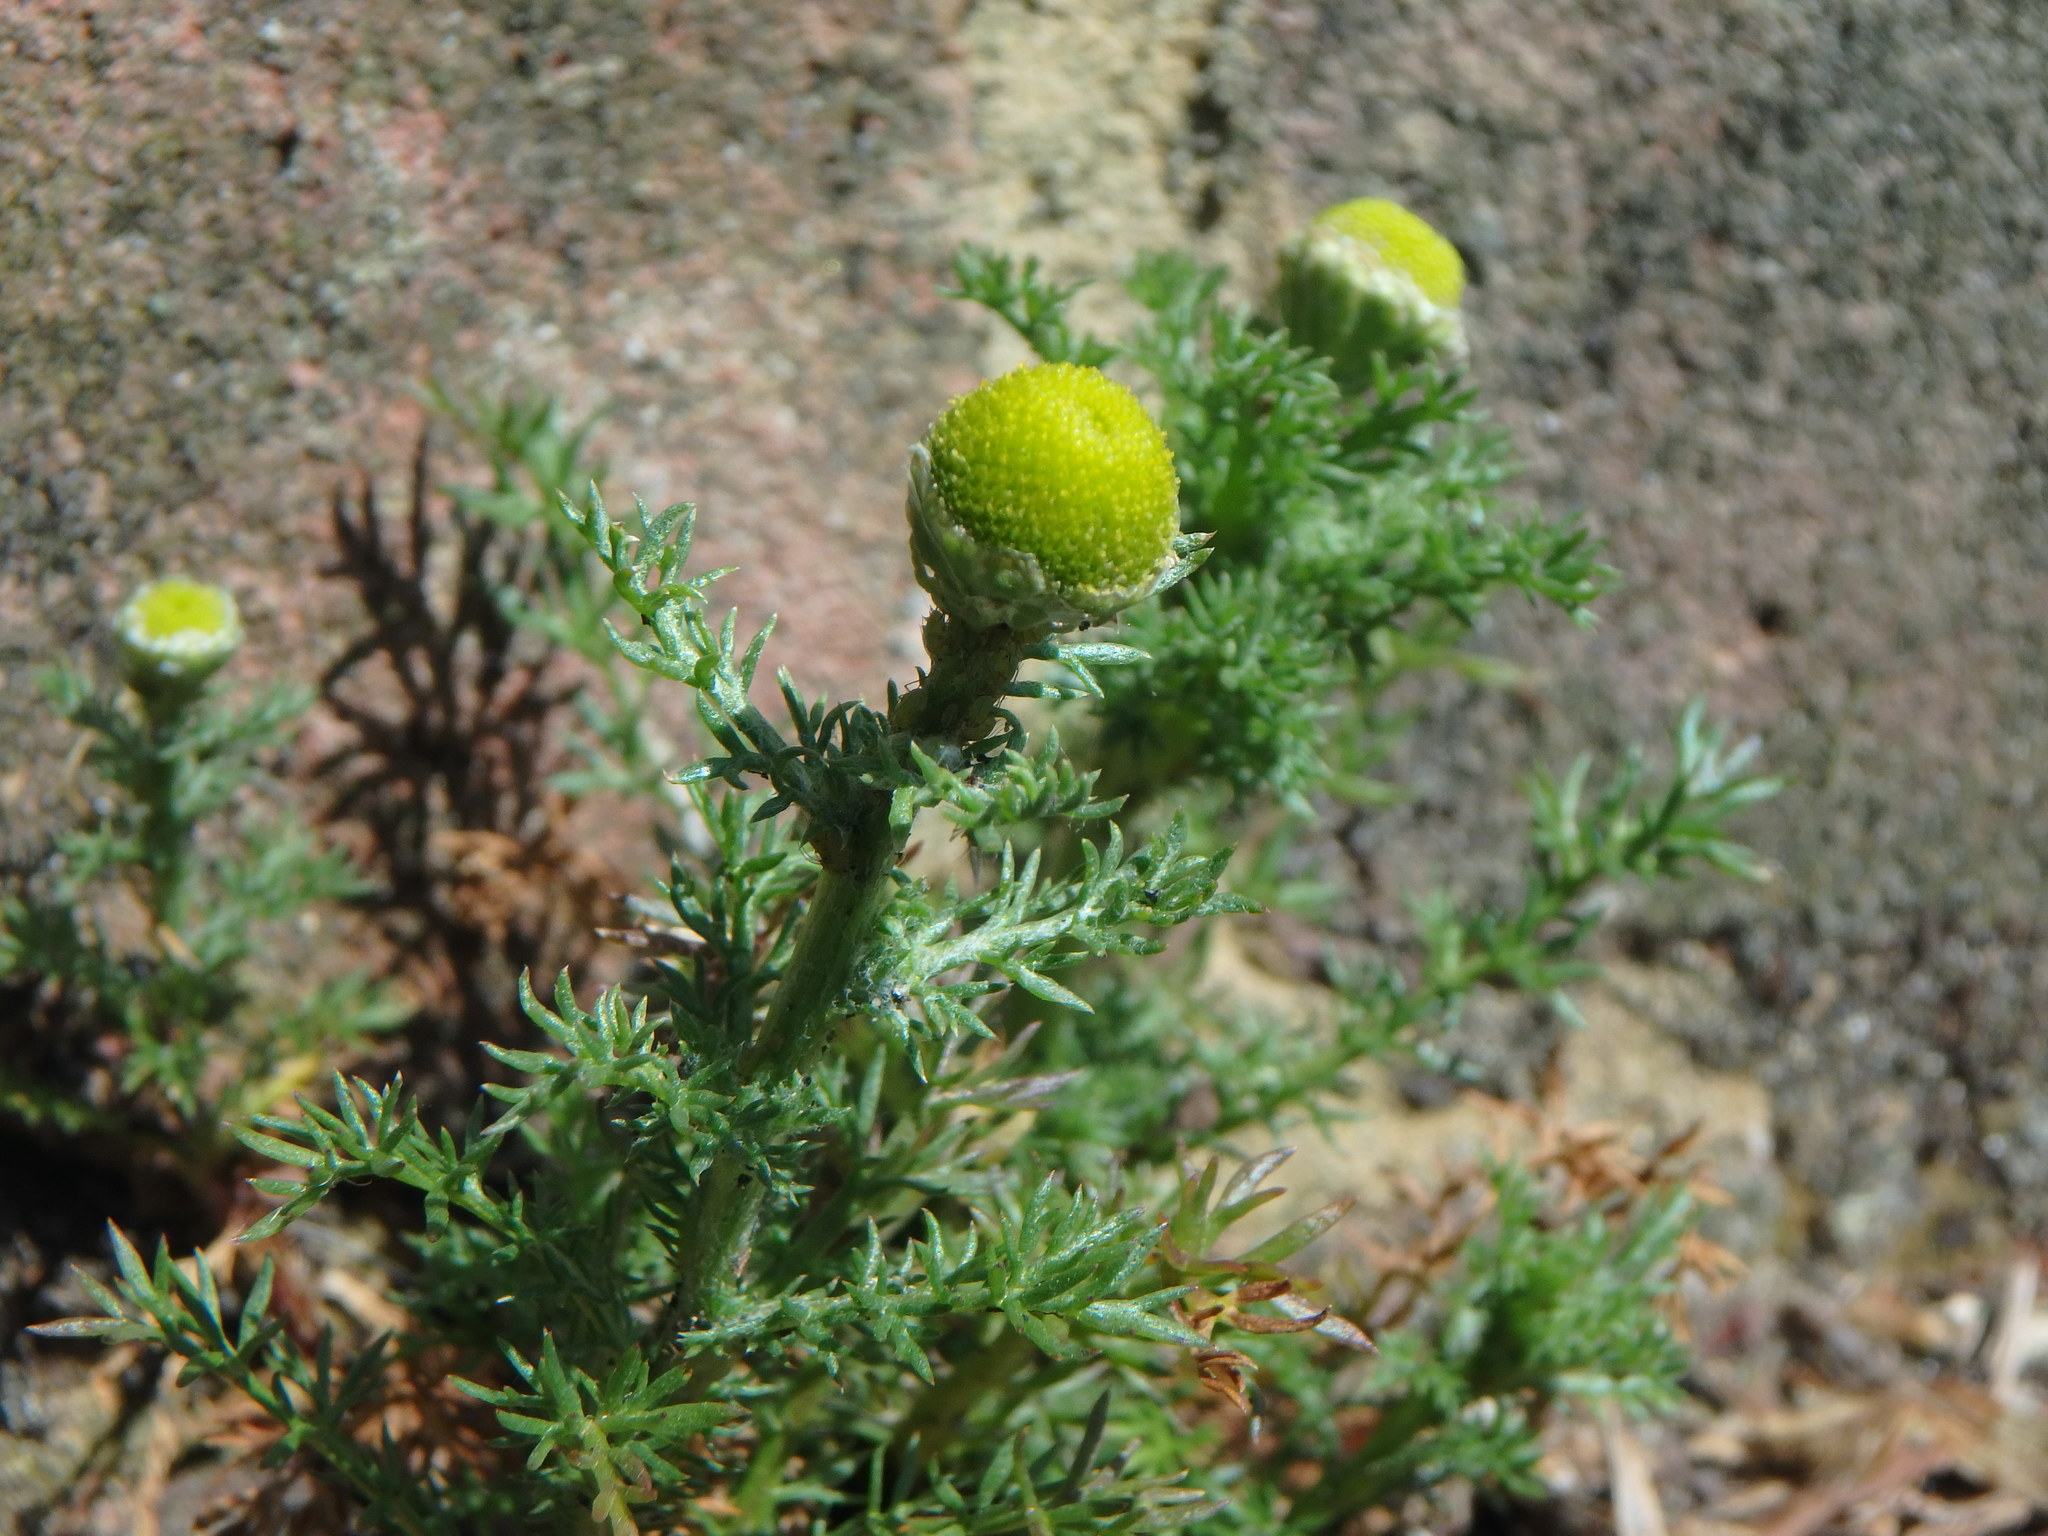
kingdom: Plantae
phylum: Tracheophyta
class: Magnoliopsida
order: Asterales
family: Asteraceae
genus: Matricaria
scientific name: Matricaria discoidea
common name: Disc mayweed
